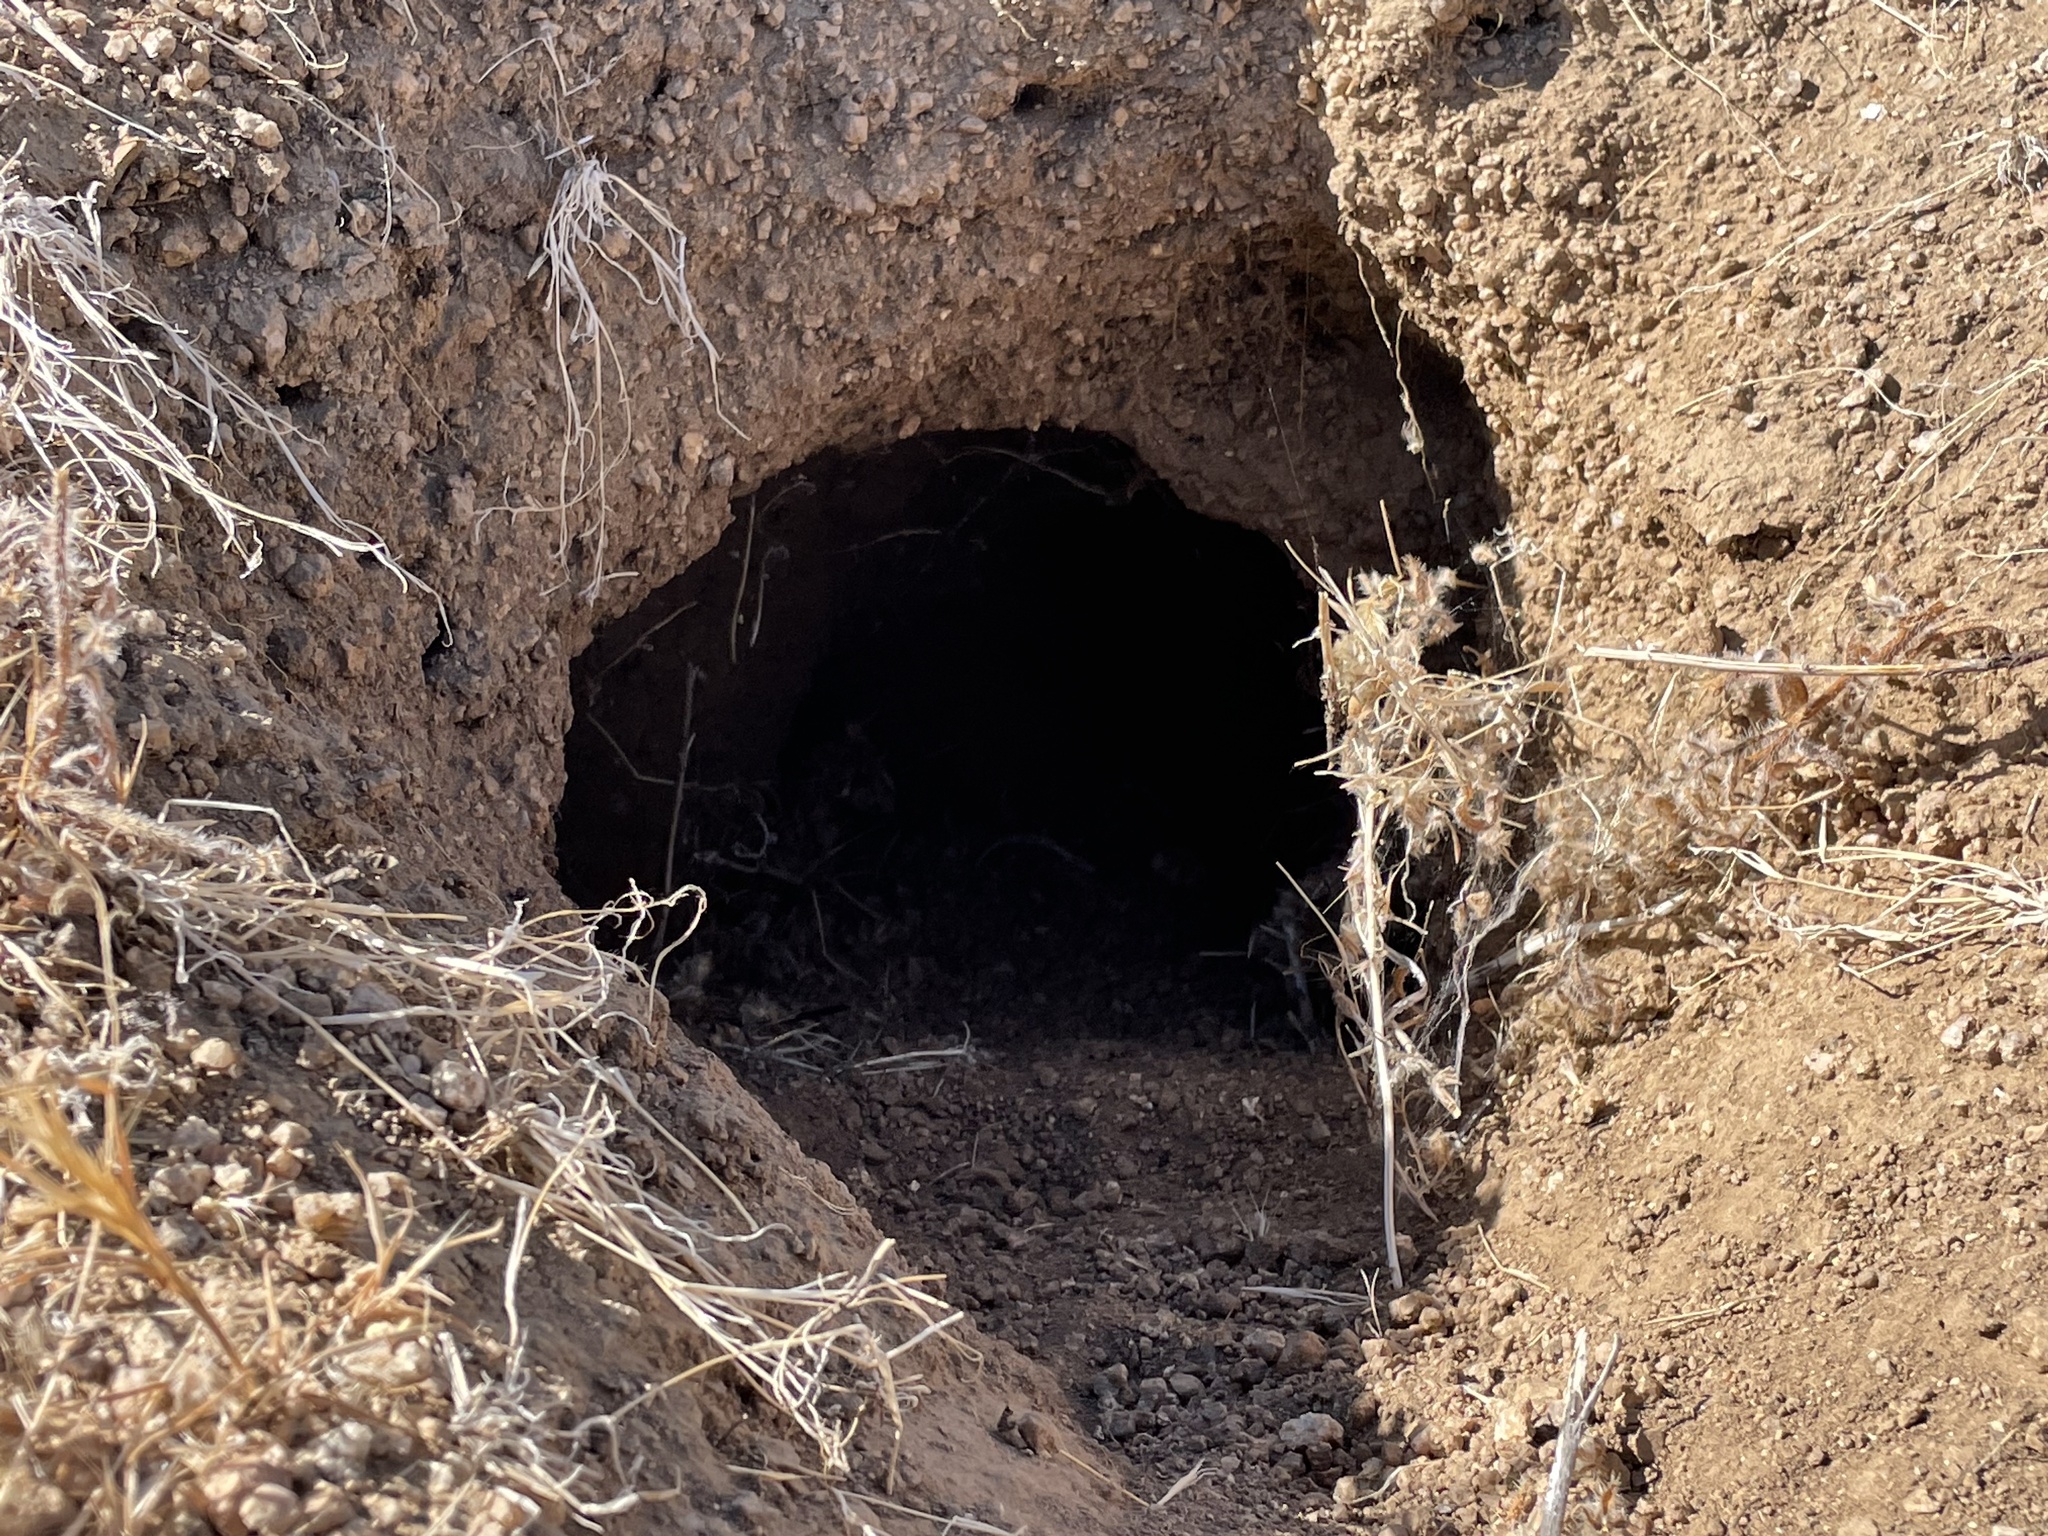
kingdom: Animalia
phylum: Chordata
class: Testudines
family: Testudinidae
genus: Gopherus
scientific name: Gopherus agassizii
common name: Mojave desert tortoise
